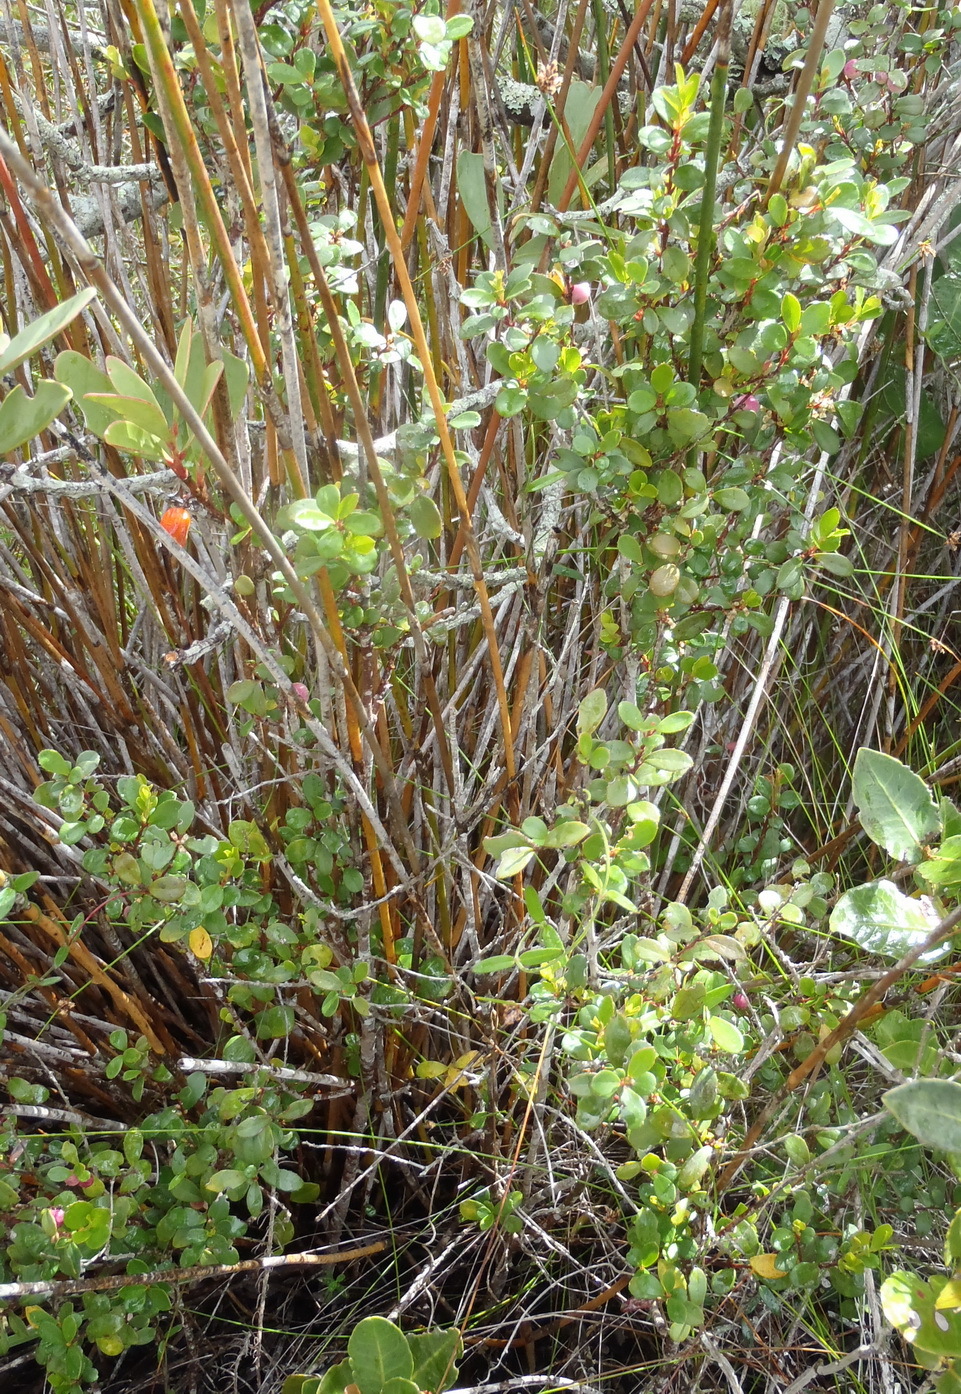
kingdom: Plantae
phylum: Tracheophyta
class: Magnoliopsida
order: Ericales
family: Primulaceae
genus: Myrsine
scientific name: Myrsine africana
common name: African-boxwood
